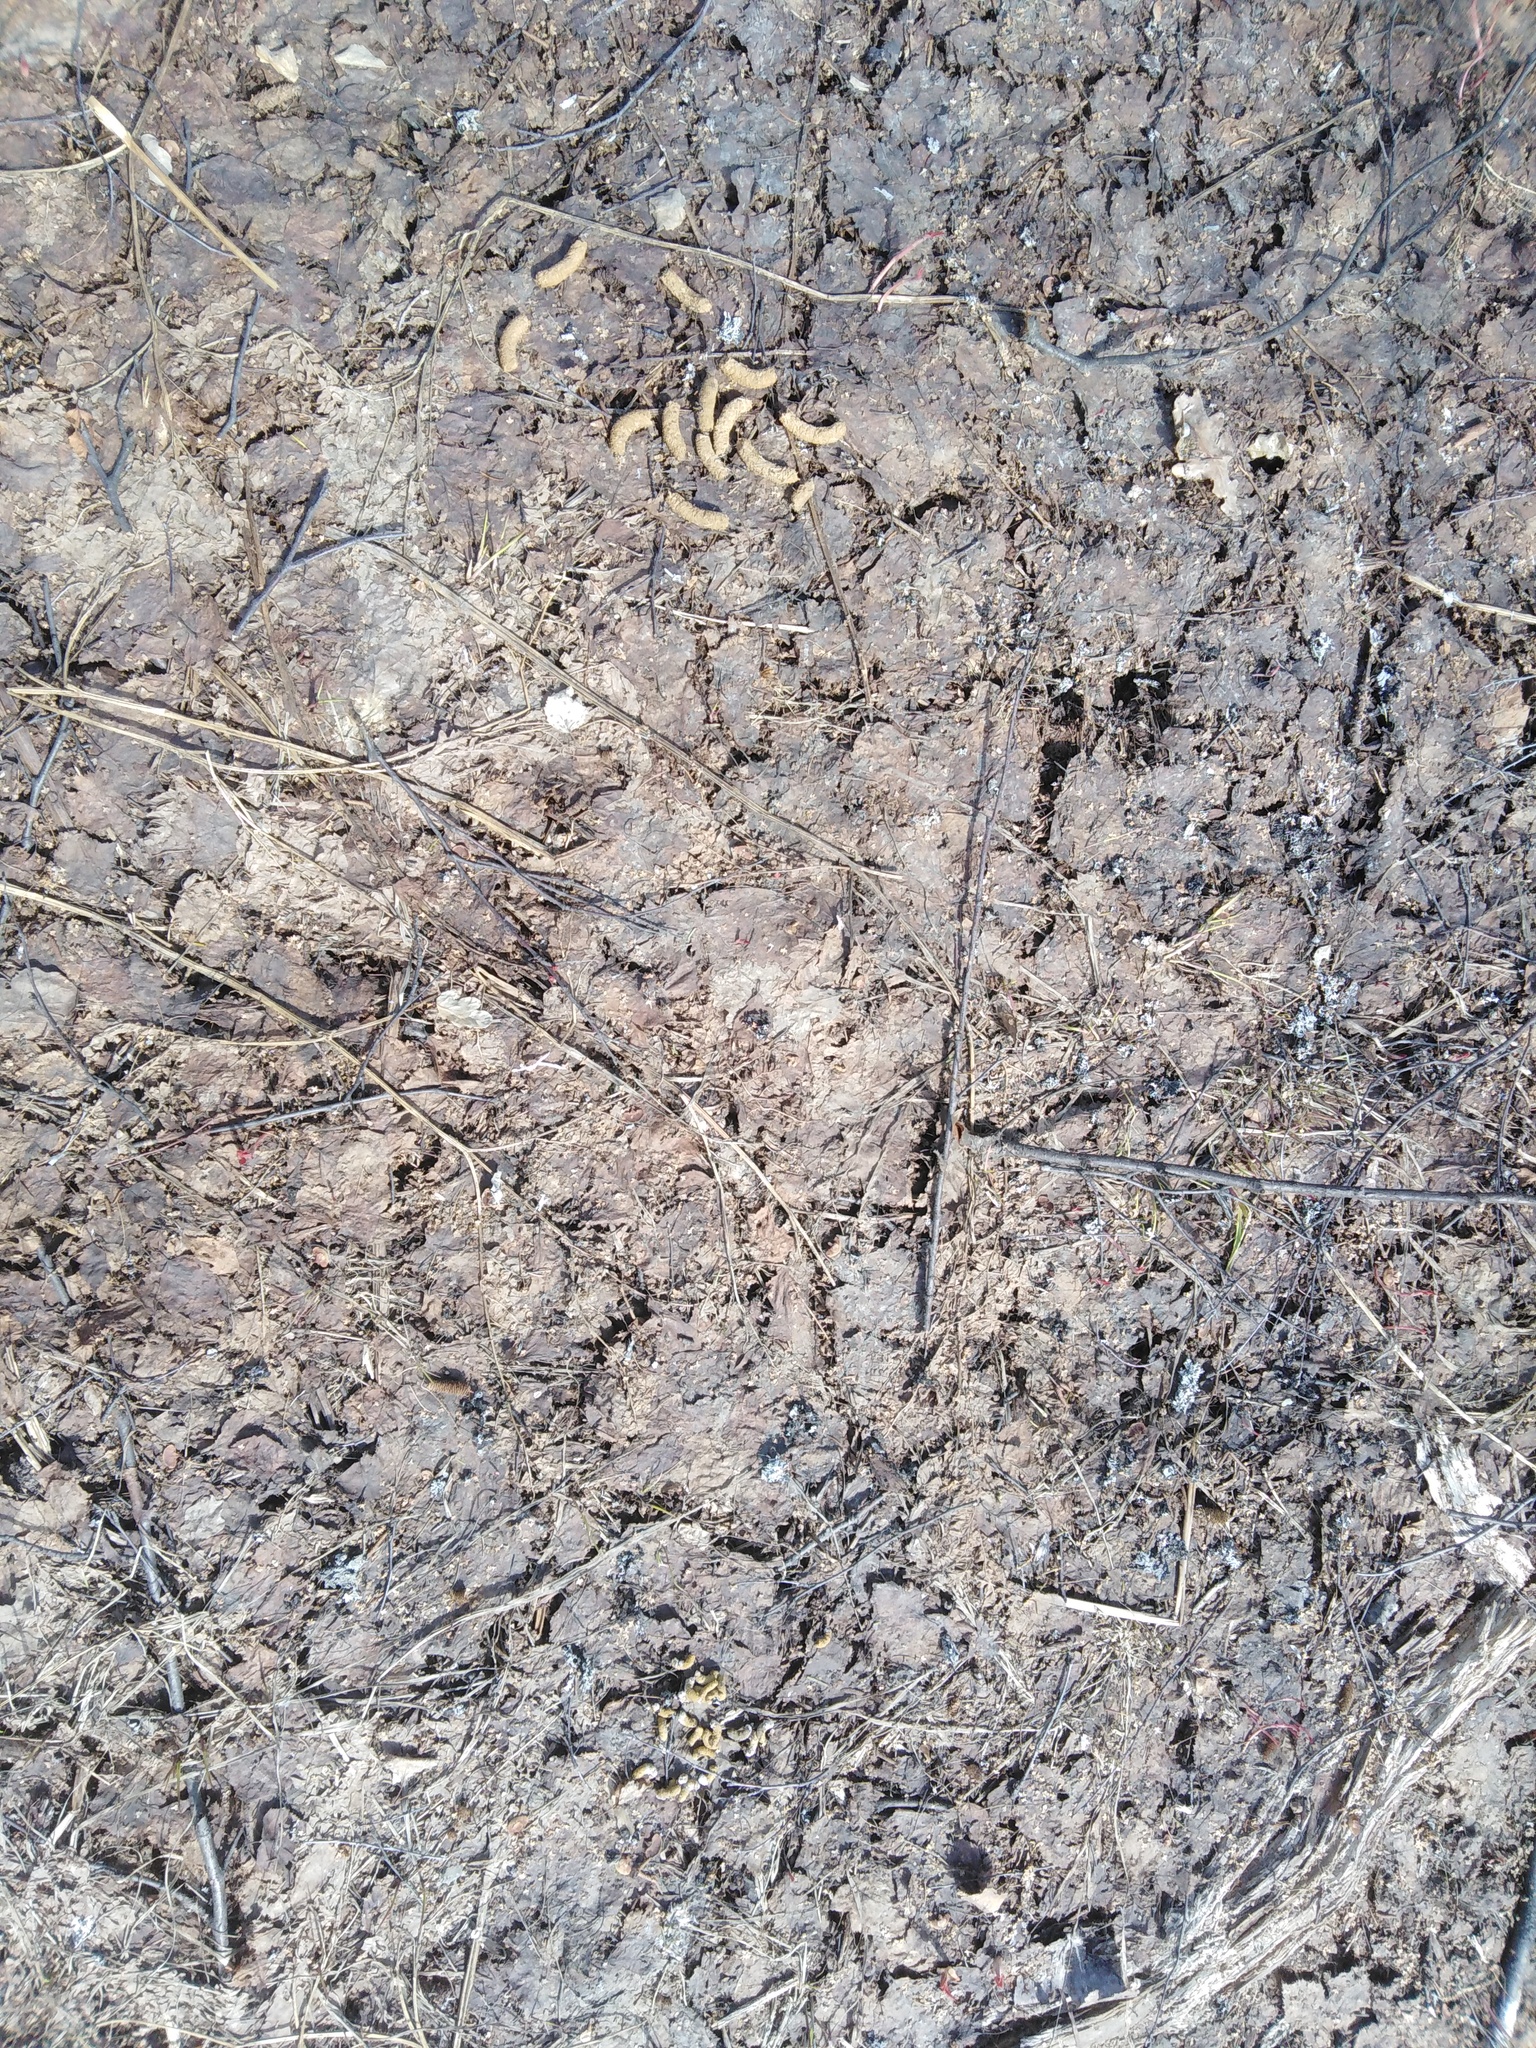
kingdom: Animalia
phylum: Chordata
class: Aves
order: Galliformes
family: Phasianidae
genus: Tetrao
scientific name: Tetrao urogallus
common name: Western capercaillie
